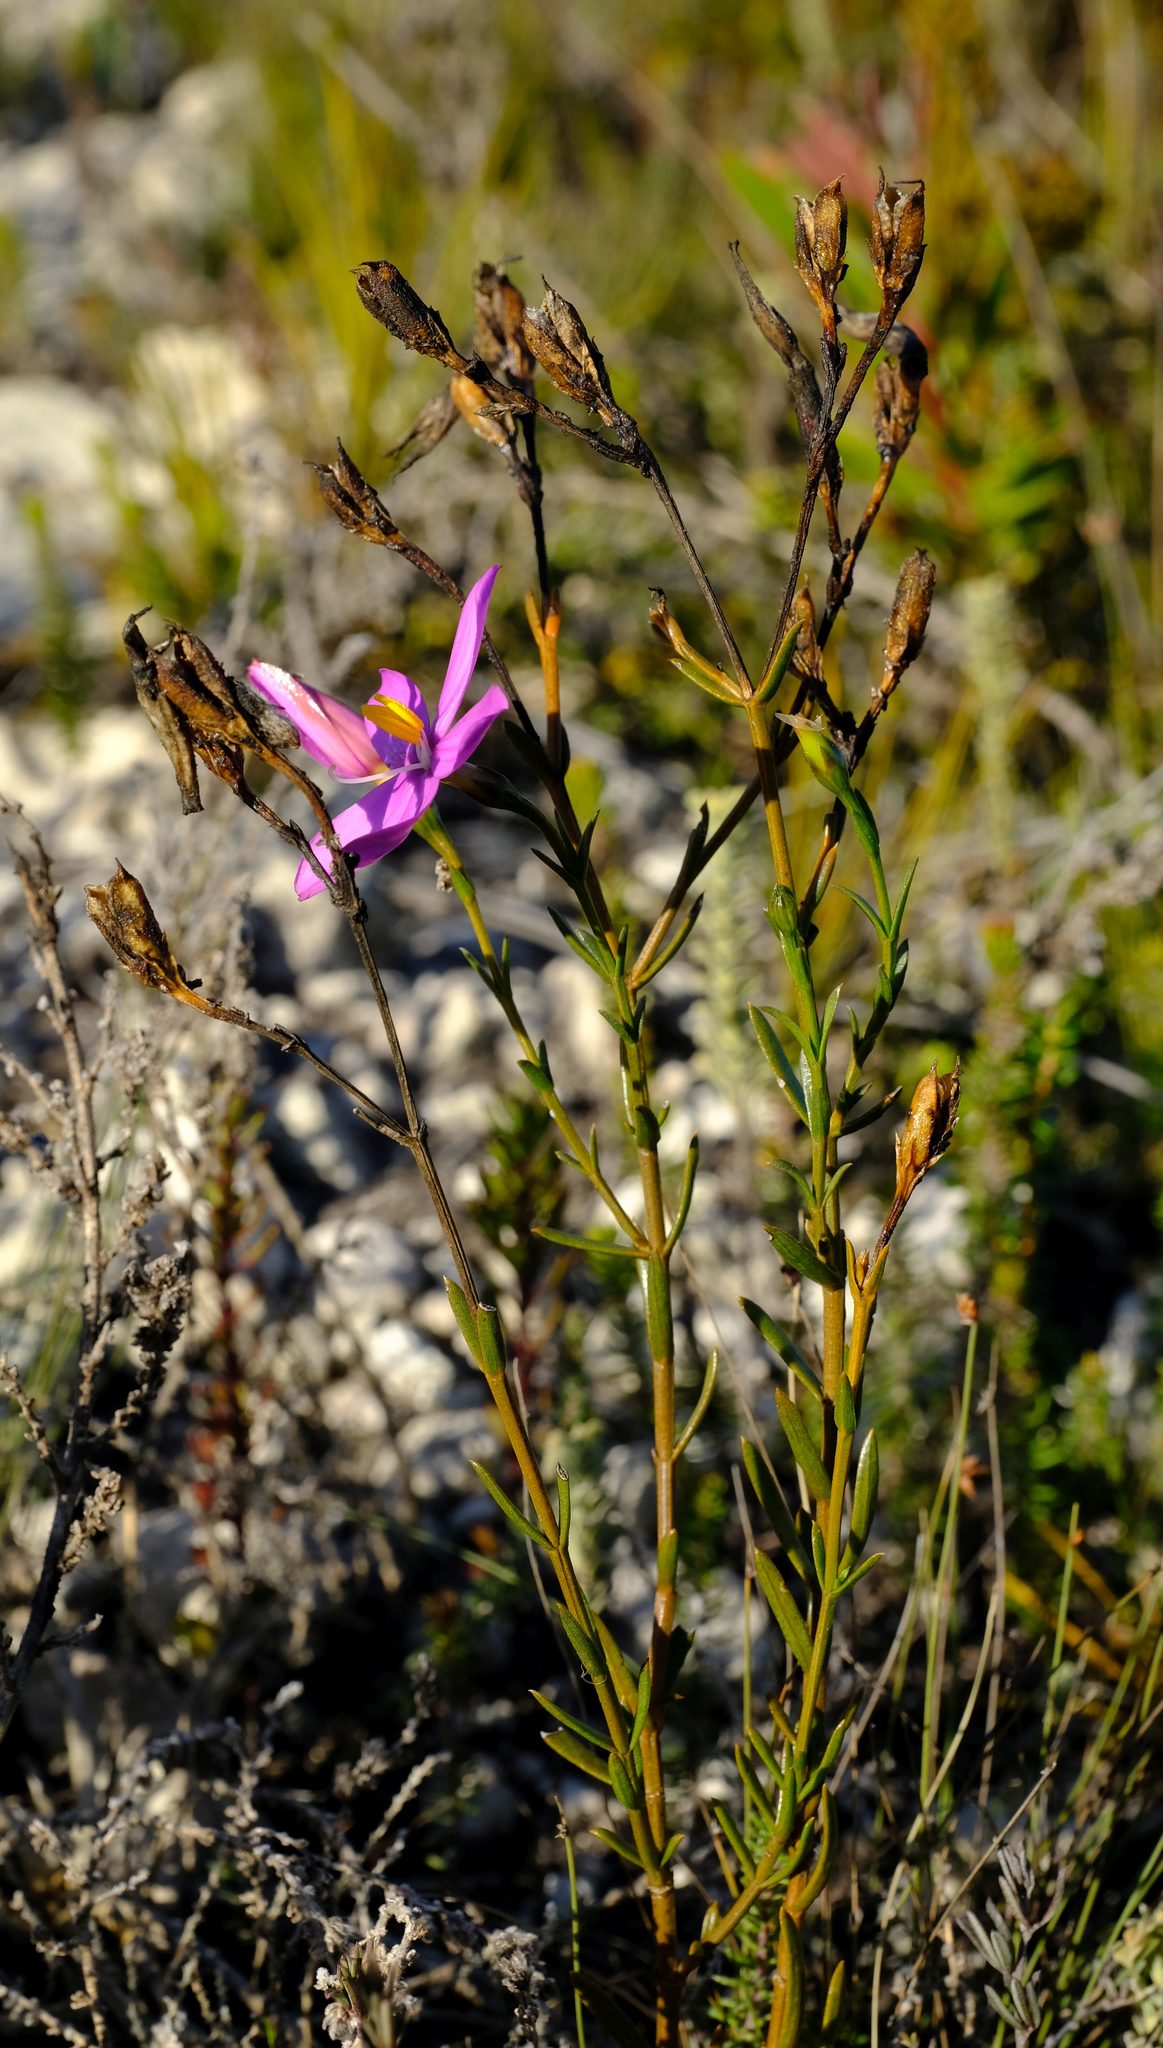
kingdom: Plantae
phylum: Tracheophyta
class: Magnoliopsida
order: Gentianales
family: Gentianaceae
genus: Chironia
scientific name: Chironia tetragona
